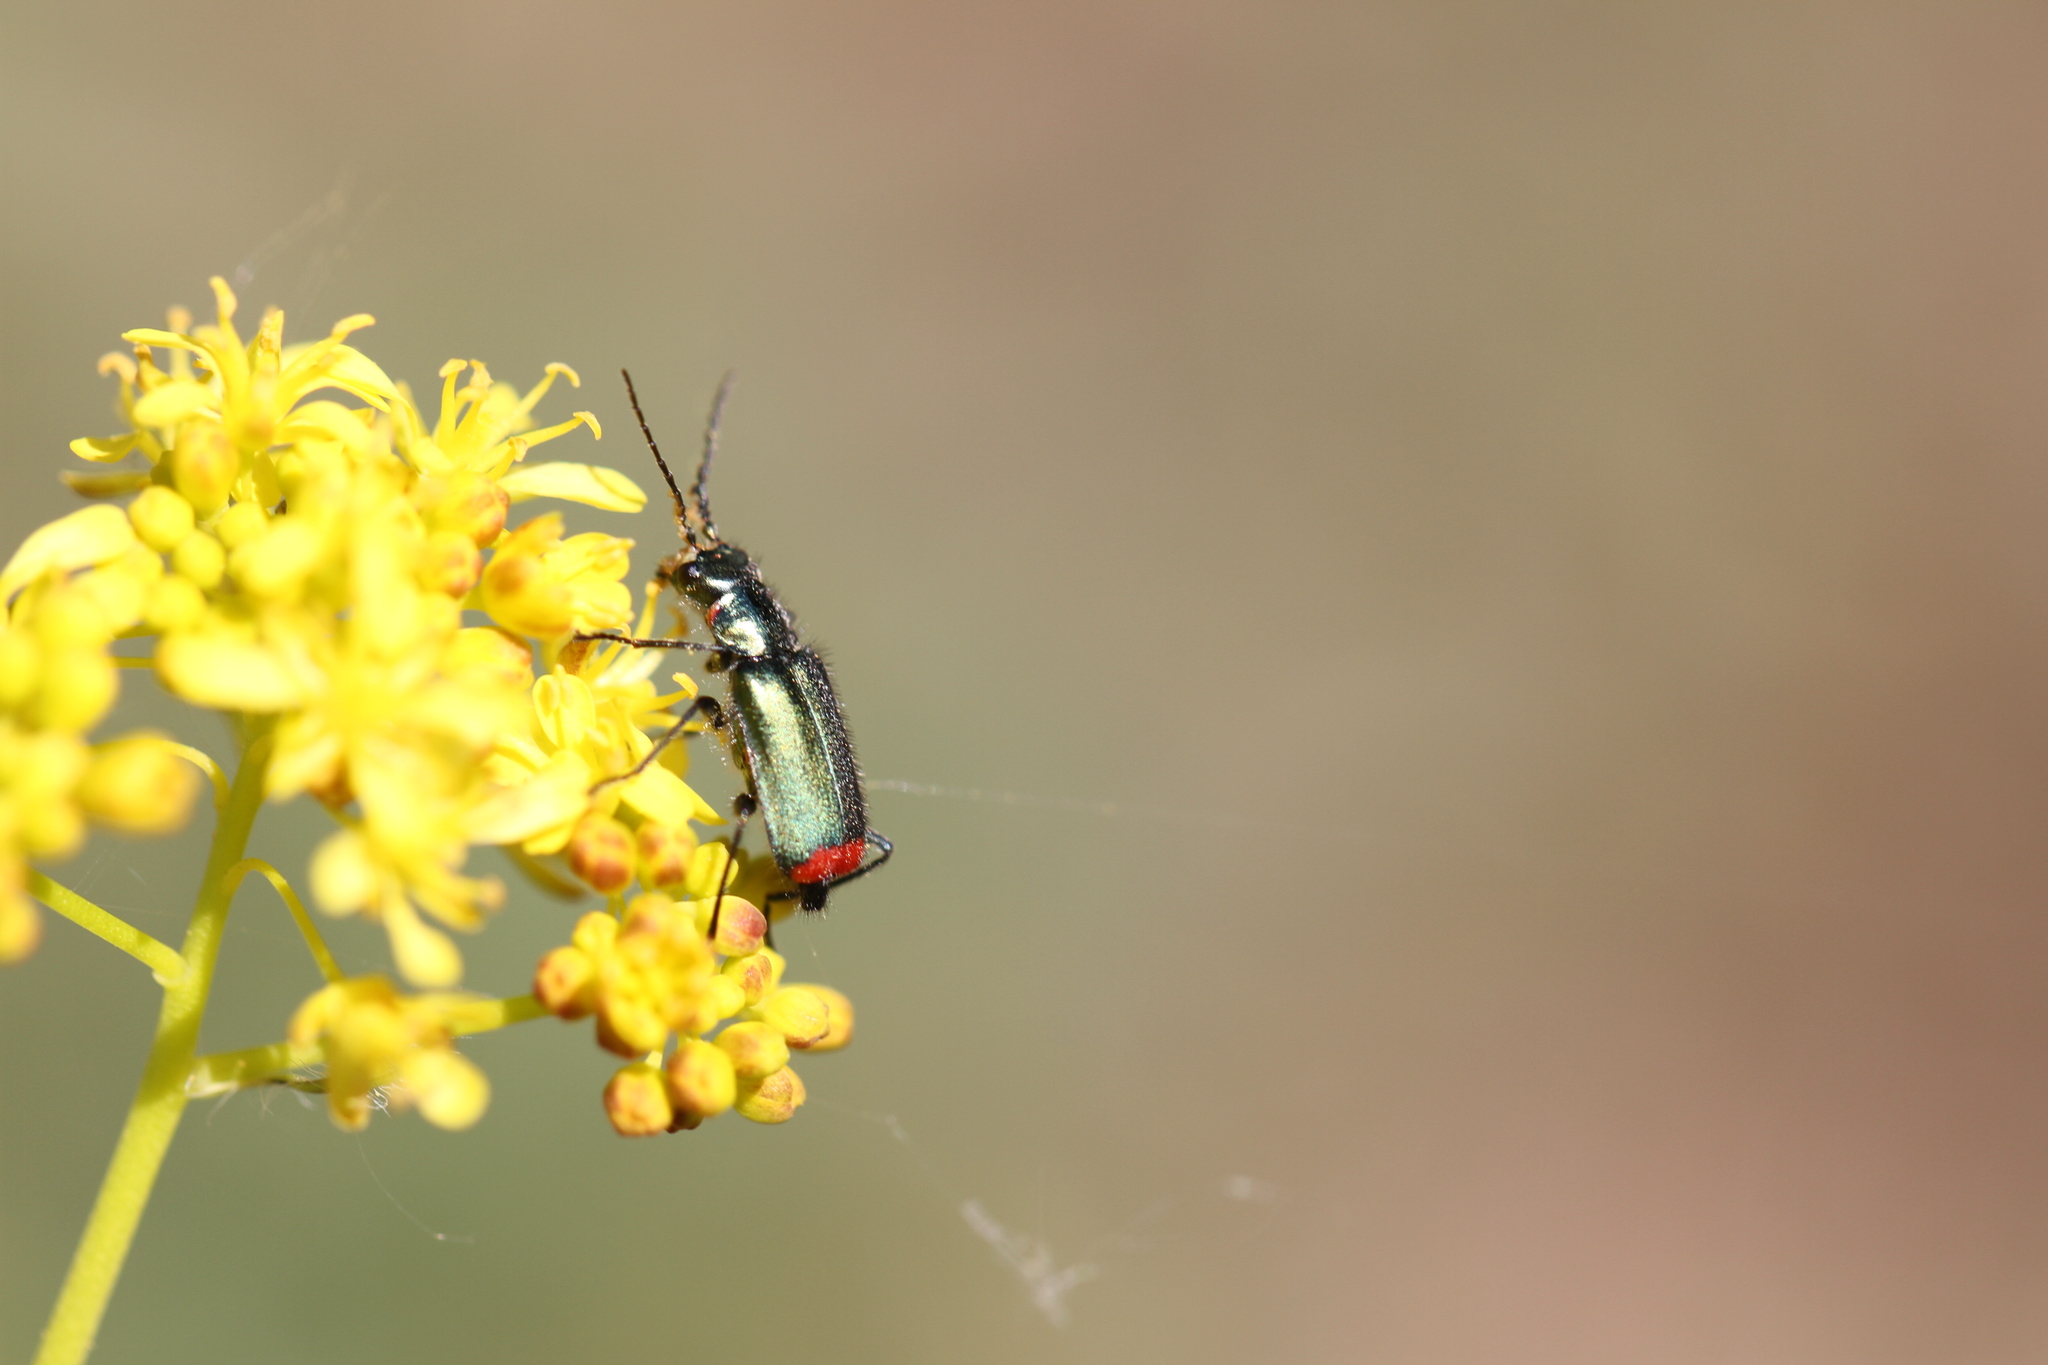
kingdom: Animalia
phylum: Arthropoda
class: Insecta
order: Coleoptera
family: Melyridae
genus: Malachius
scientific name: Malachius bipustulatus
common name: Malachite beetle
